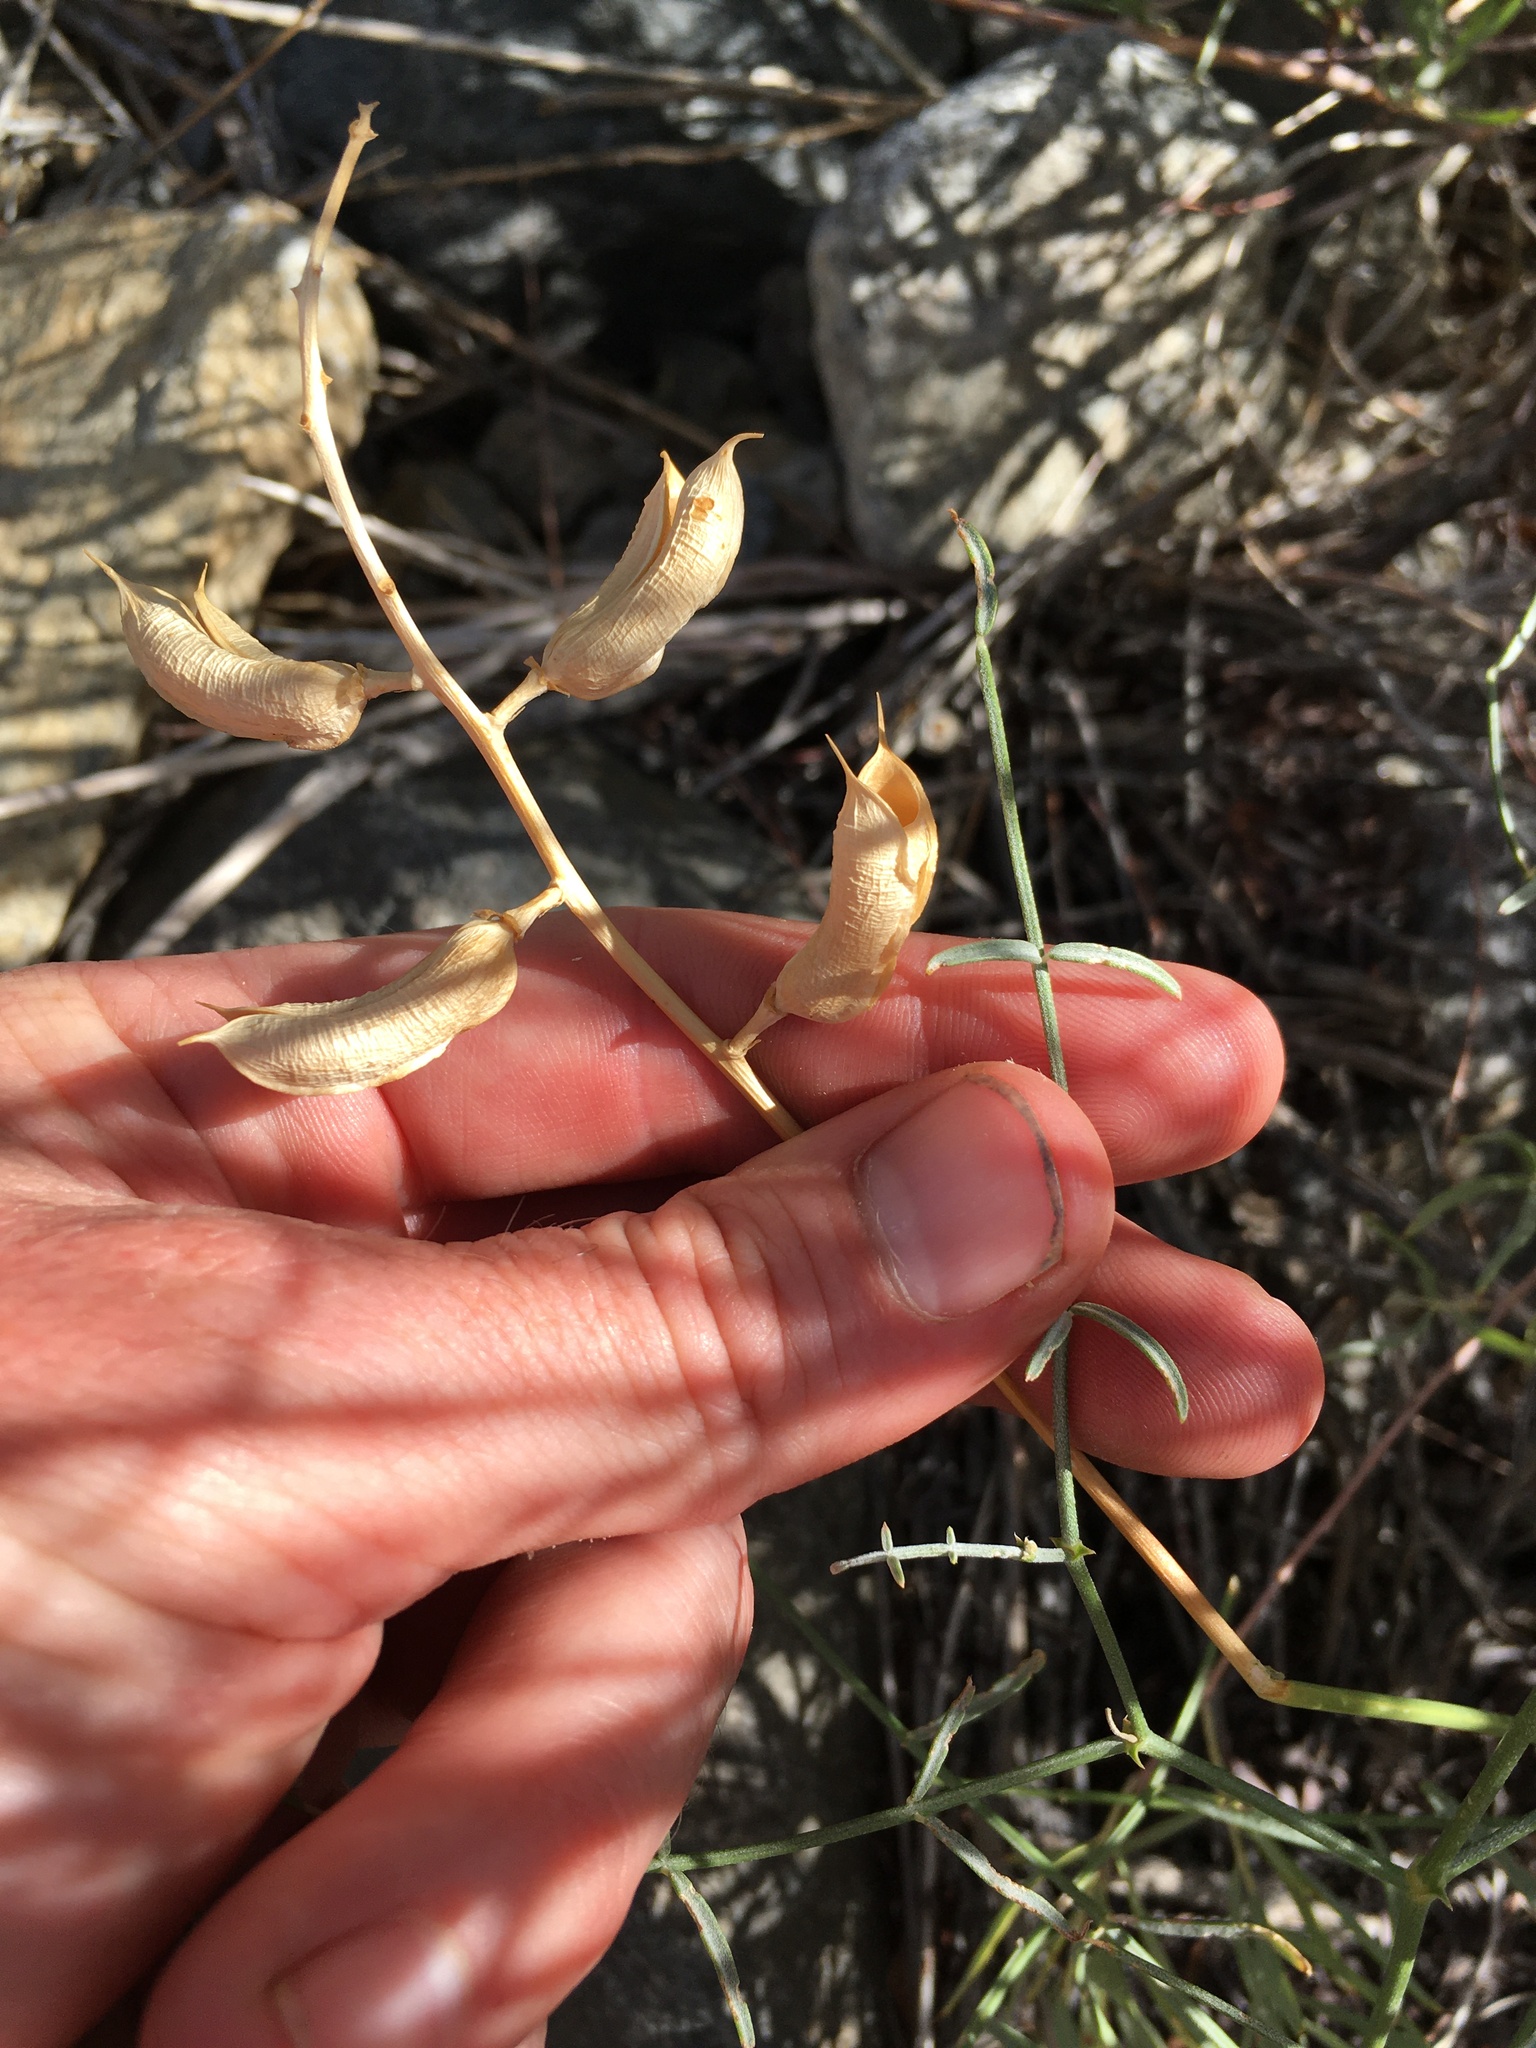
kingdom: Plantae
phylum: Tracheophyta
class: Magnoliopsida
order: Fabales
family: Fabaceae
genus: Astragalus
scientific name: Astragalus serenoi
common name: Naked milk-vetch
